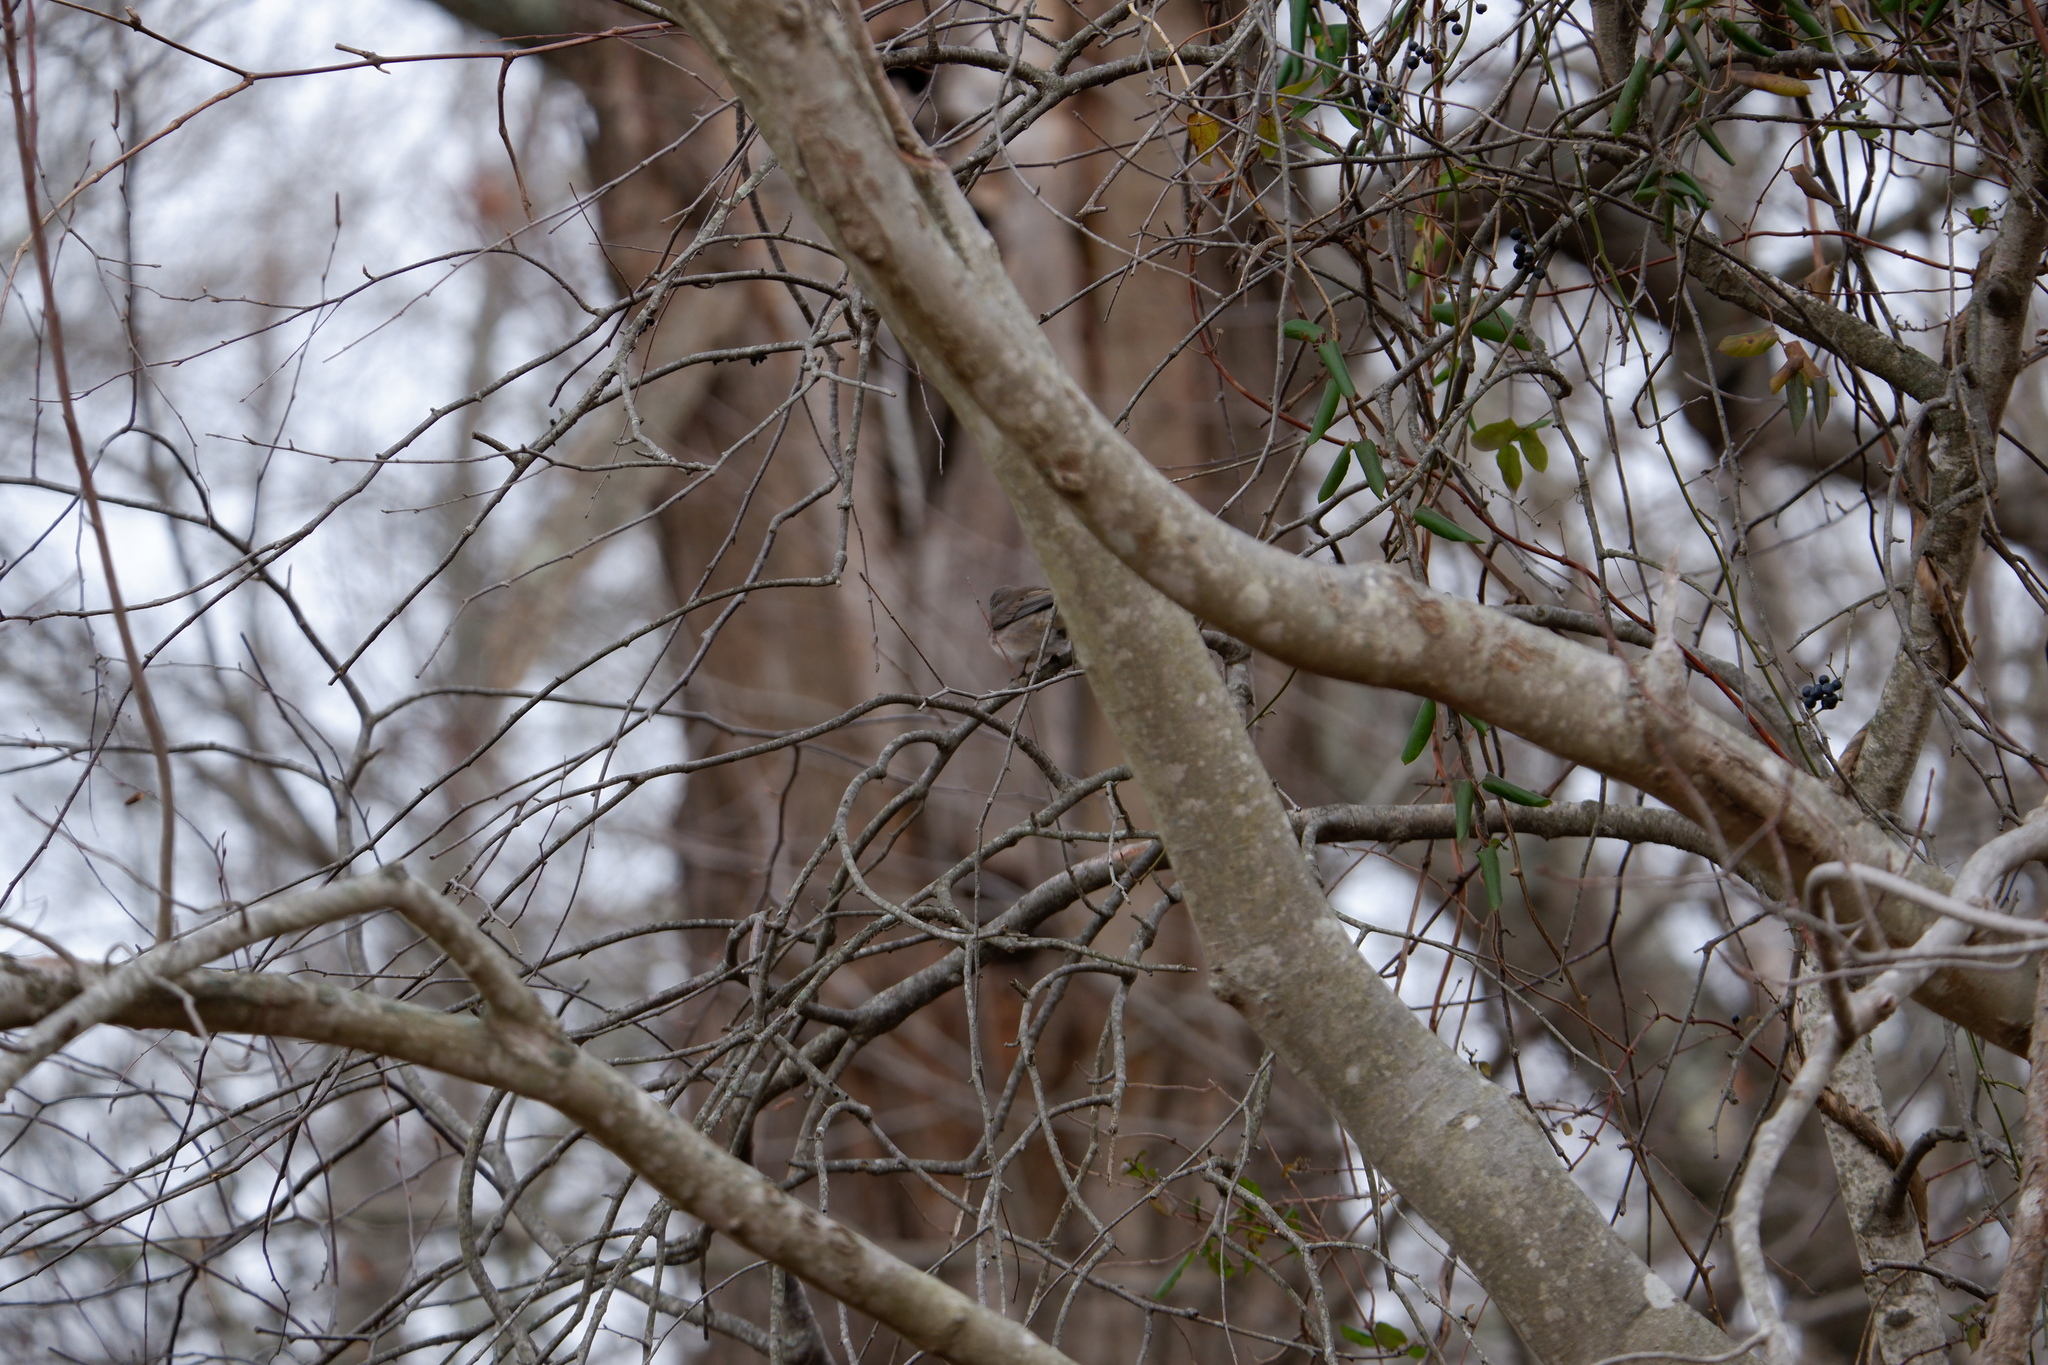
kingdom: Animalia
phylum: Chordata
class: Aves
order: Passeriformes
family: Passerellidae
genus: Junco
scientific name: Junco hyemalis
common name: Dark-eyed junco
